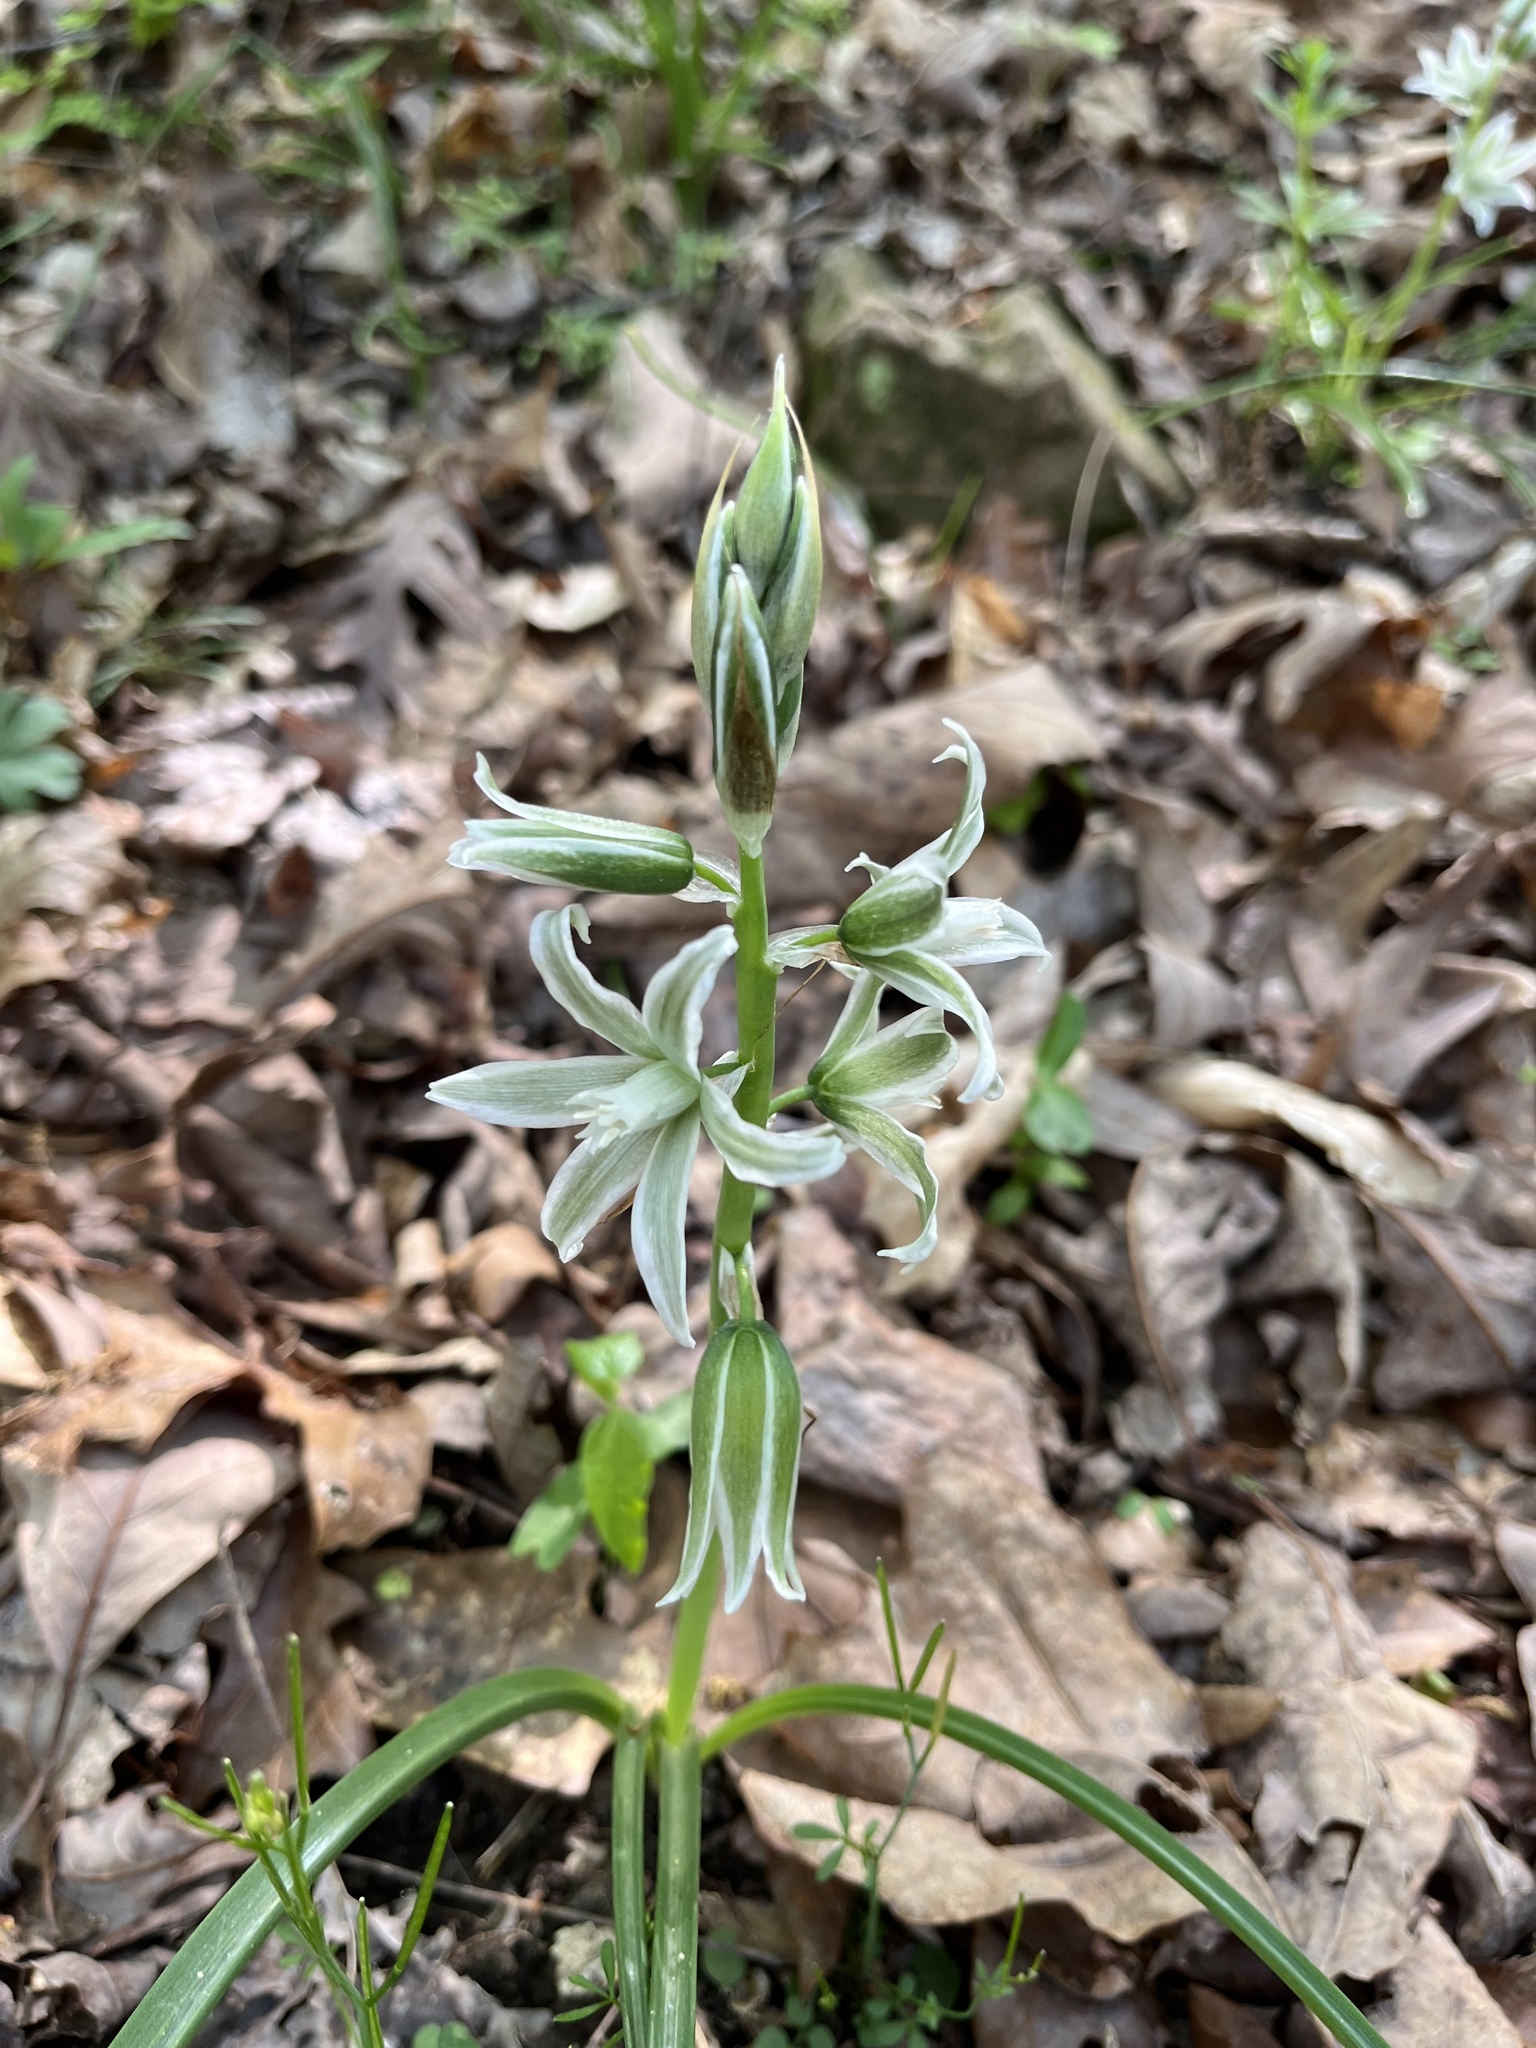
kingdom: Plantae
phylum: Tracheophyta
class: Liliopsida
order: Asparagales
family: Asparagaceae
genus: Ornithogalum
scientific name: Ornithogalum nutans
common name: Drooping star-of-bethlehem
